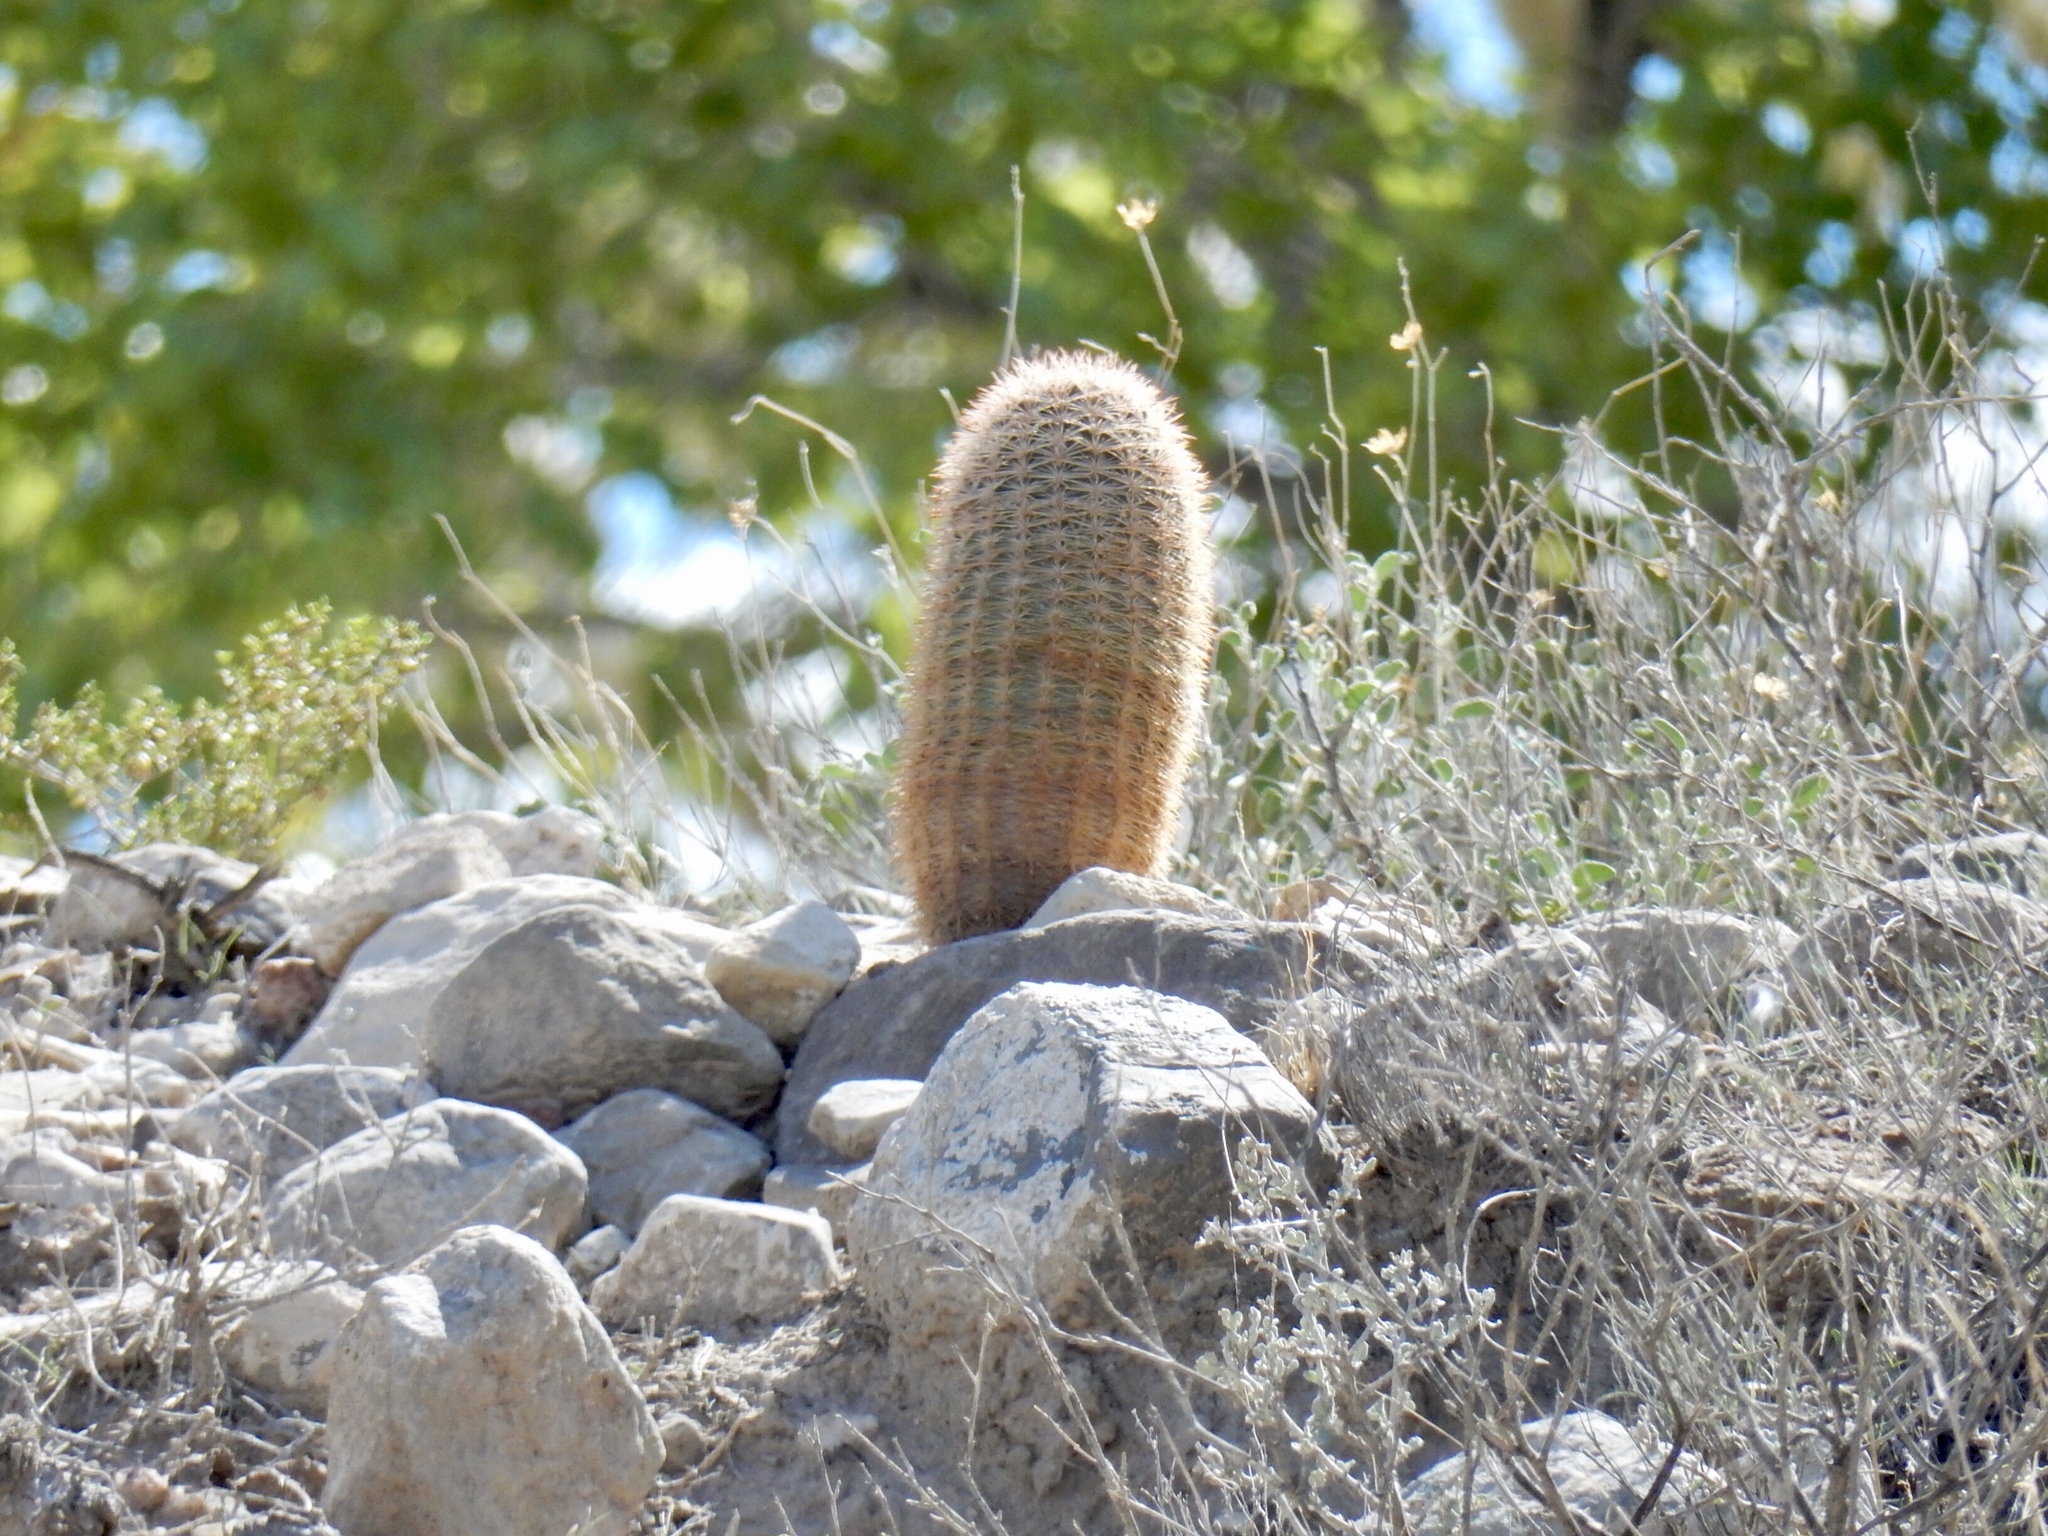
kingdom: Plantae
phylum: Tracheophyta
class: Magnoliopsida
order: Caryophyllales
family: Cactaceae
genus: Echinocereus
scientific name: Echinocereus dasyacanthus
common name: Spiny hedgehog cactus
